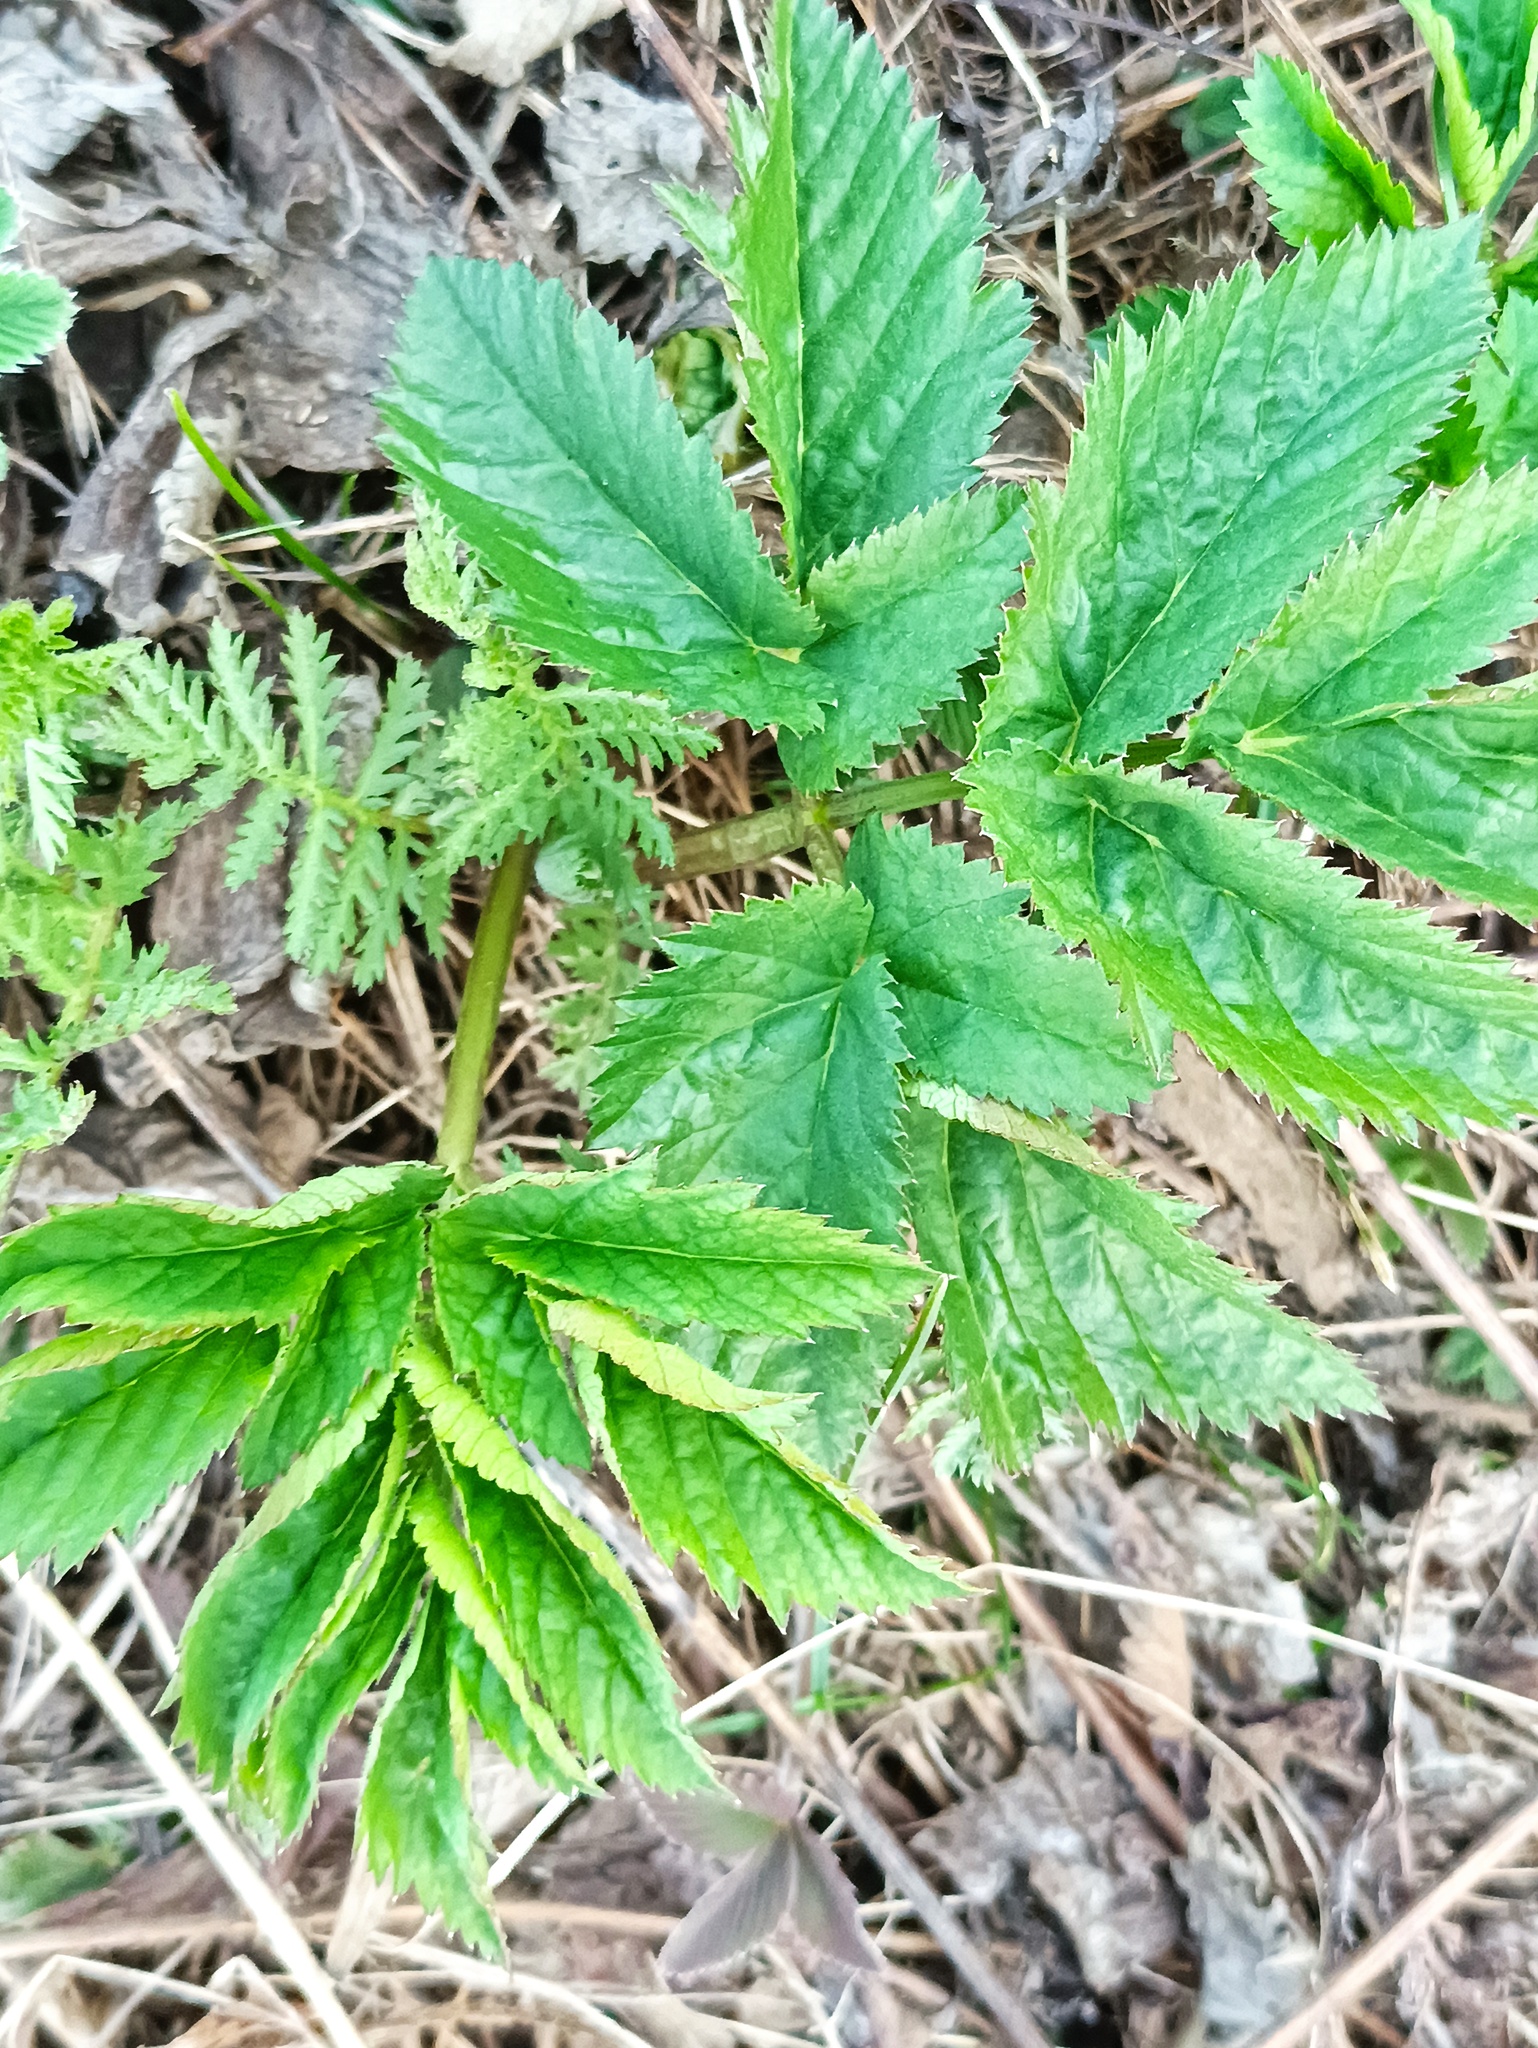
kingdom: Plantae
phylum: Tracheophyta
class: Magnoliopsida
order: Apiales
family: Apiaceae
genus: Aegopodium
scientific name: Aegopodium podagraria
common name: Ground-elder
